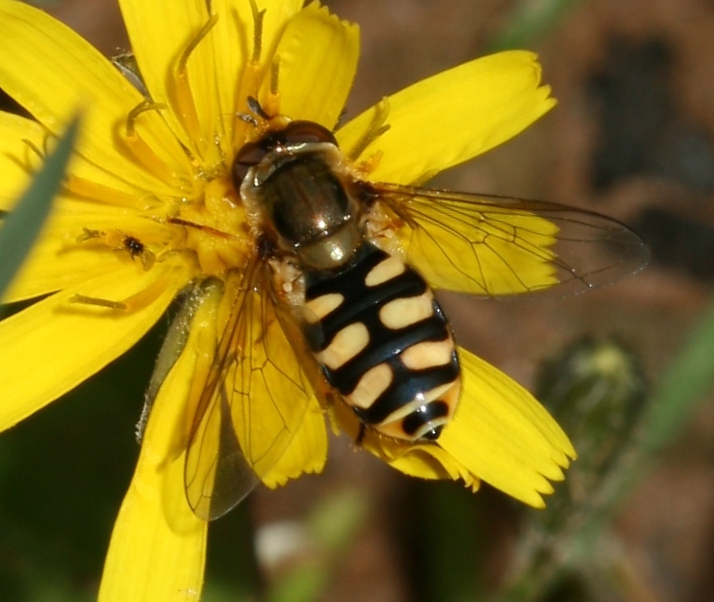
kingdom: Animalia
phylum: Arthropoda
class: Insecta
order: Diptera
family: Syrphidae
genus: Eupeodes
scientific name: Eupeodes corollae
